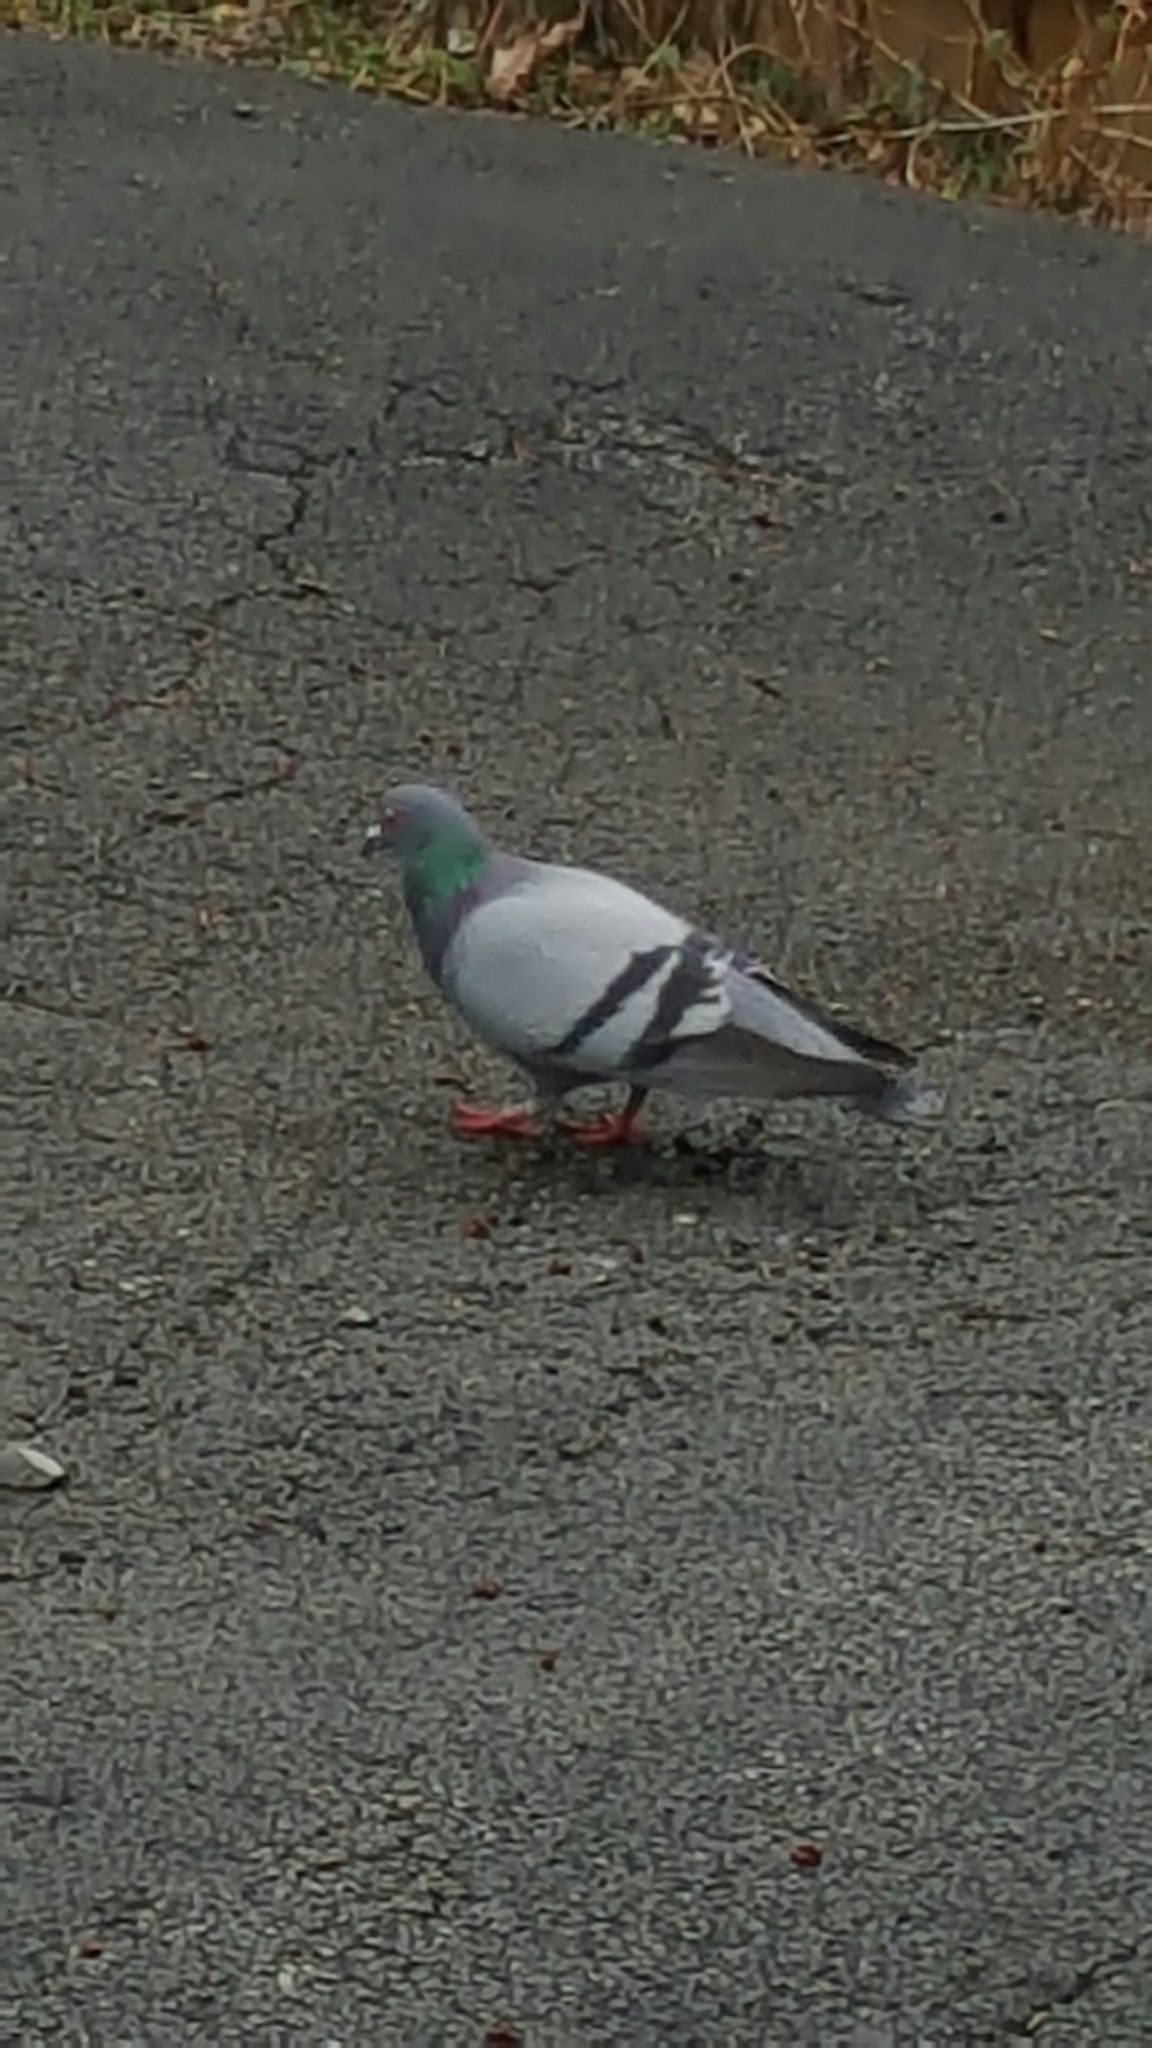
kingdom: Animalia
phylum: Chordata
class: Aves
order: Columbiformes
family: Columbidae
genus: Columba
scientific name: Columba livia
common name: Rock pigeon
